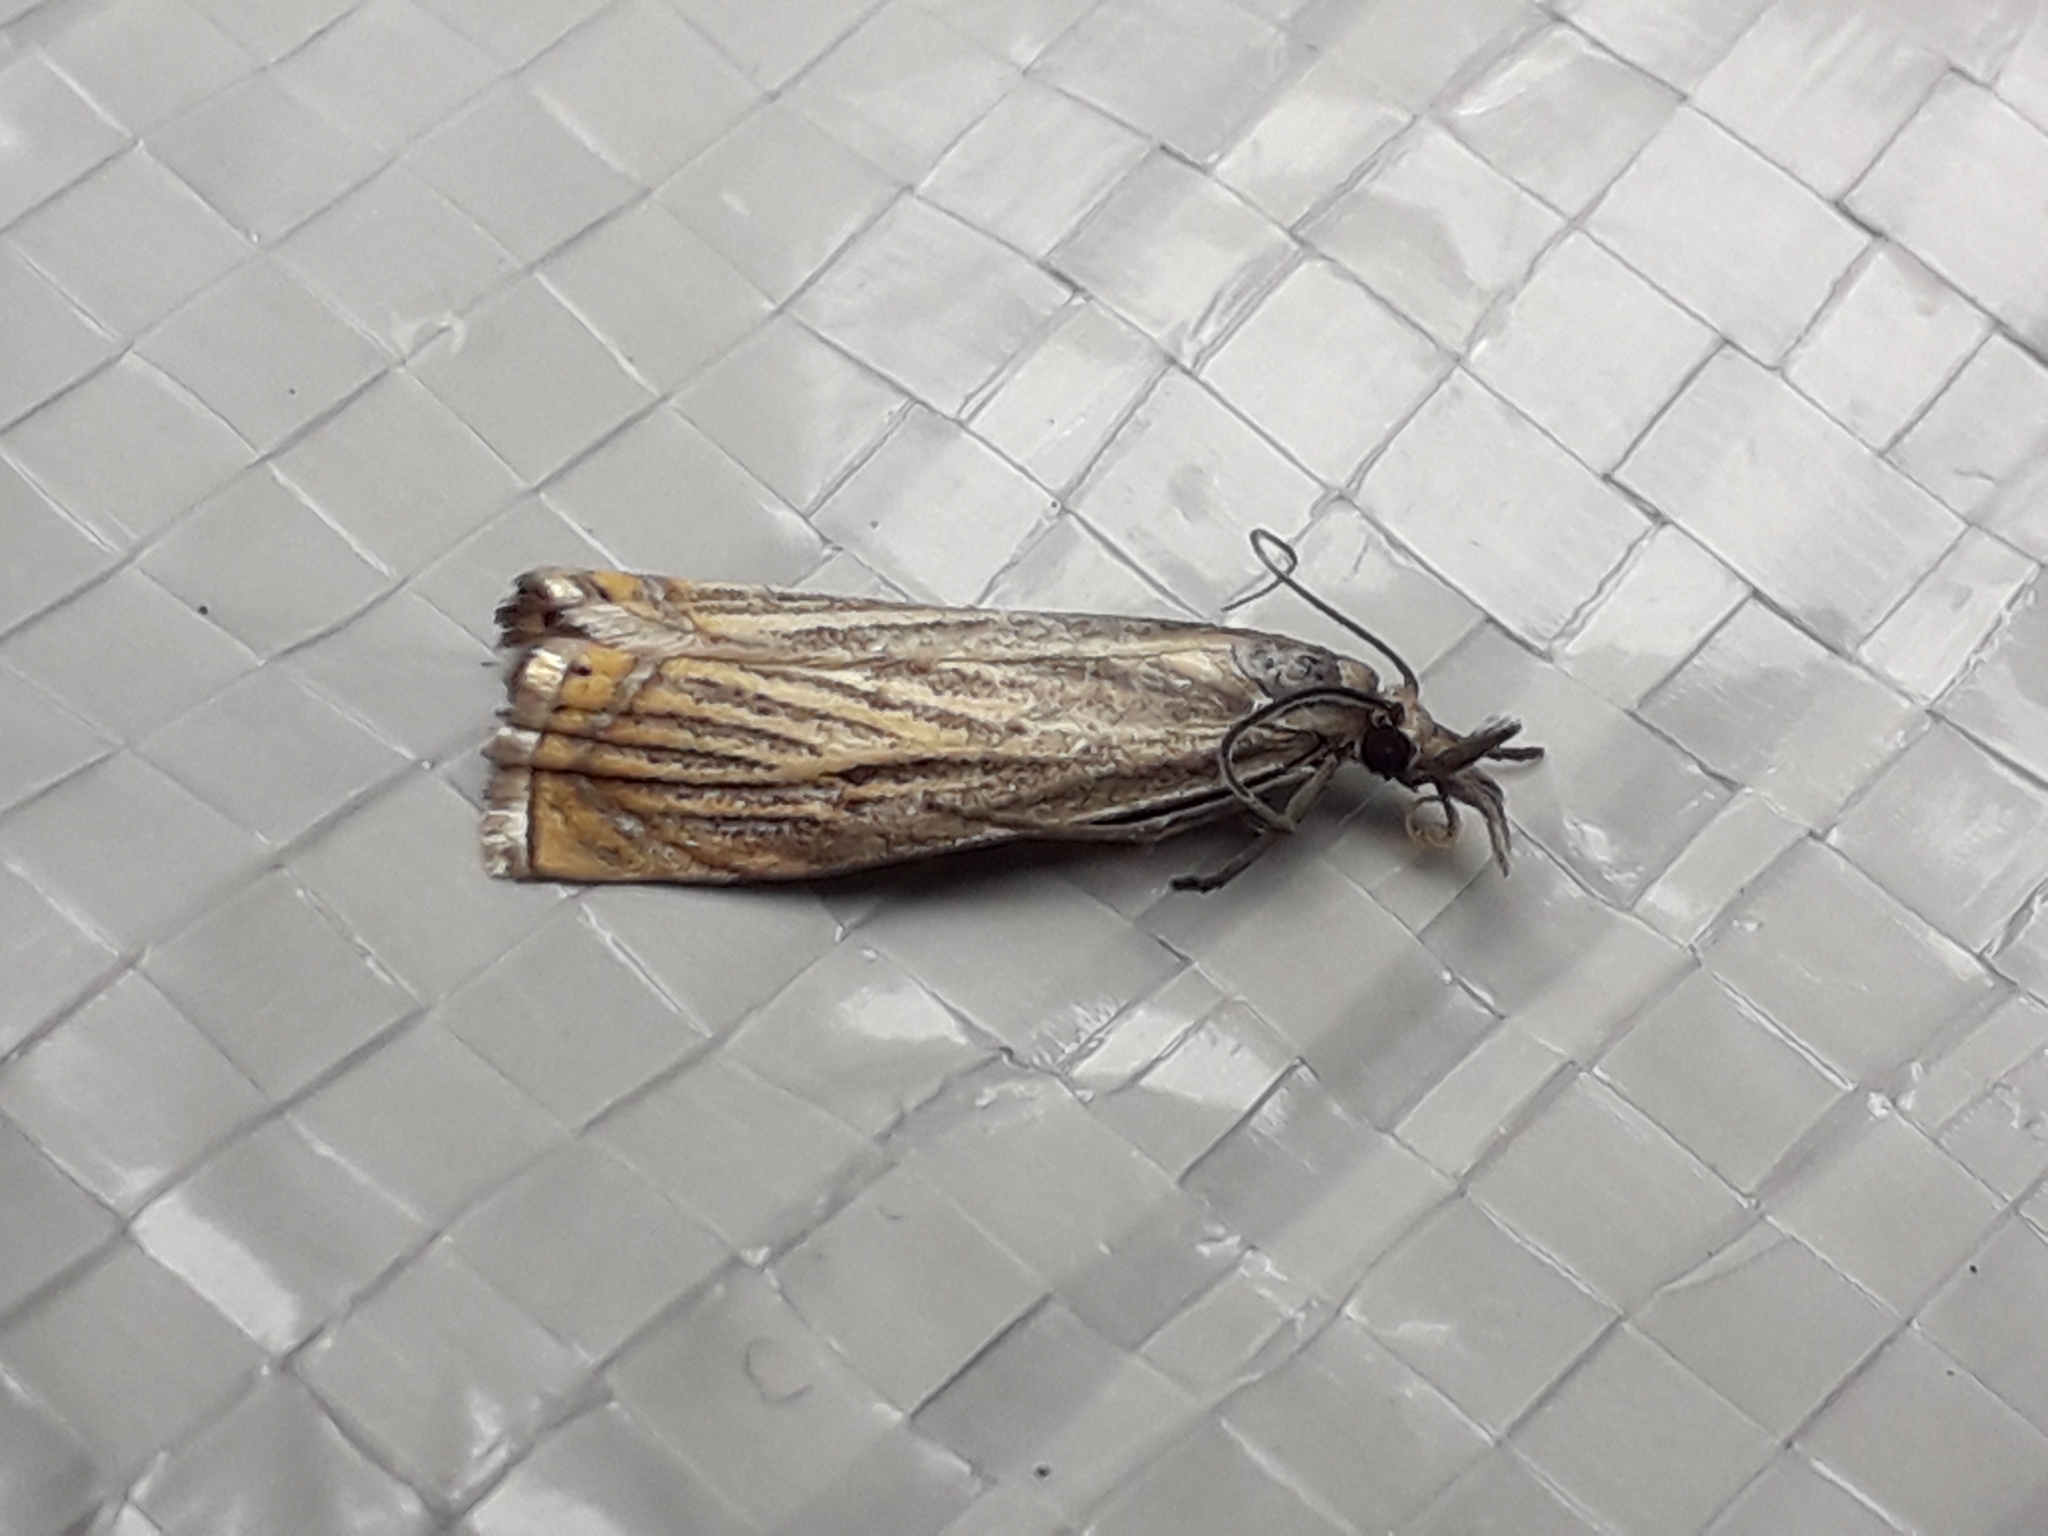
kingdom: Animalia
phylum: Arthropoda
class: Insecta
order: Lepidoptera
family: Crambidae
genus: Chrysoteuchia
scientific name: Chrysoteuchia culmella
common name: Garden grass-veneer
